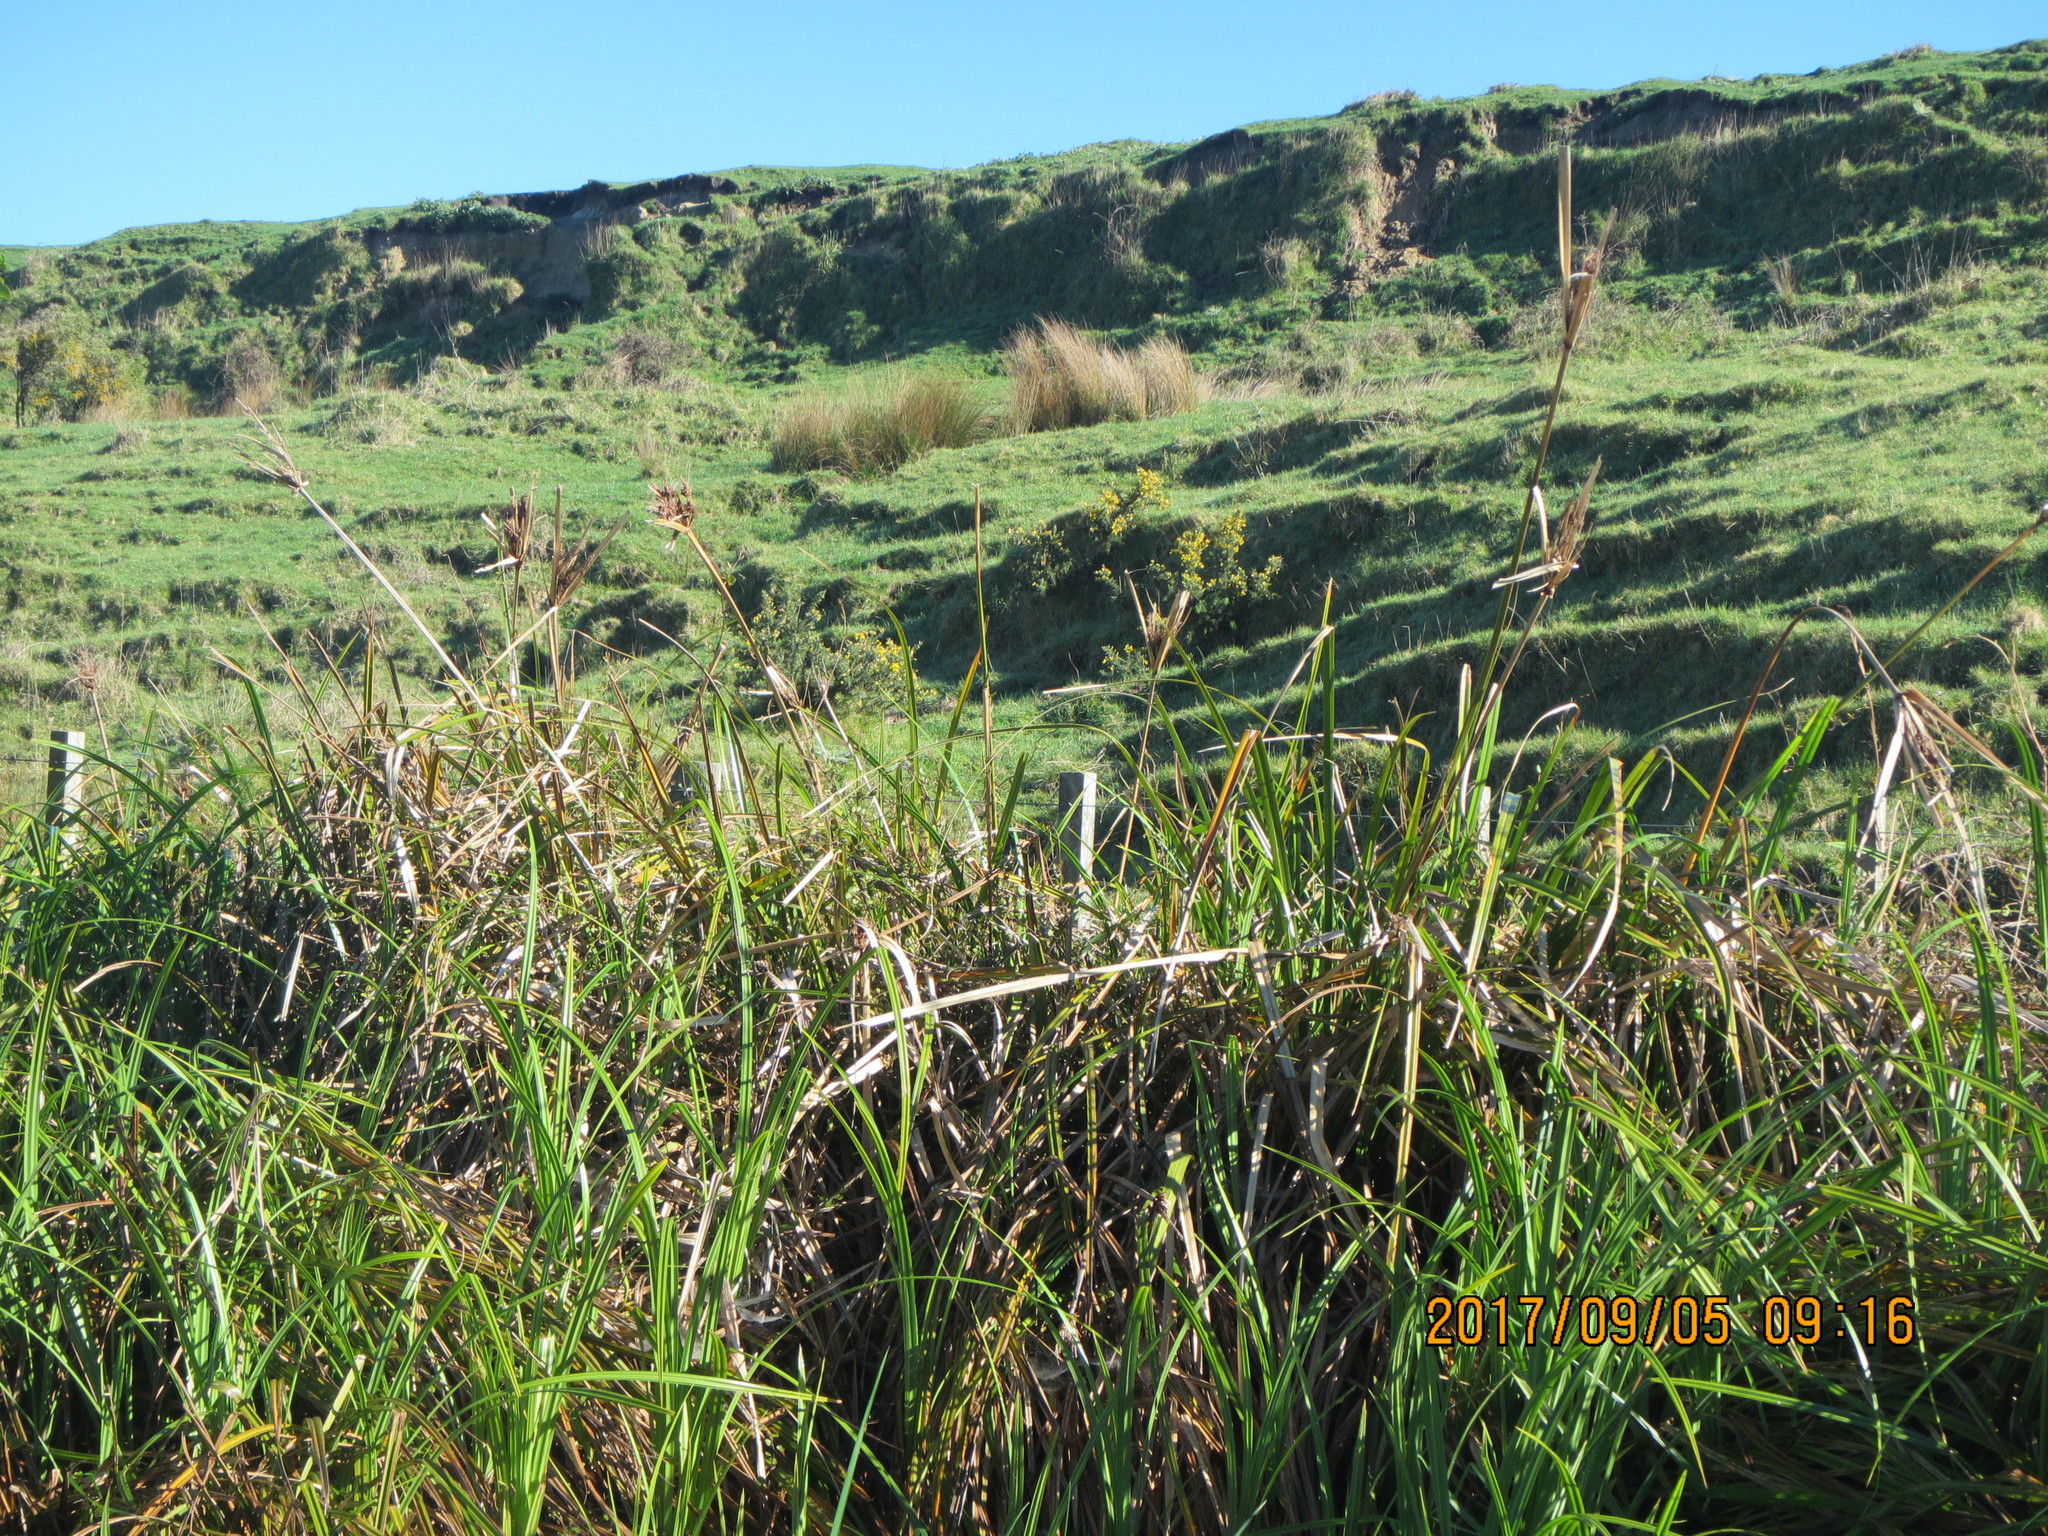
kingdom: Plantae
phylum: Tracheophyta
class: Liliopsida
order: Poales
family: Cyperaceae
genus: Cyperus
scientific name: Cyperus ustulatus
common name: Giant umbrella-sedge
